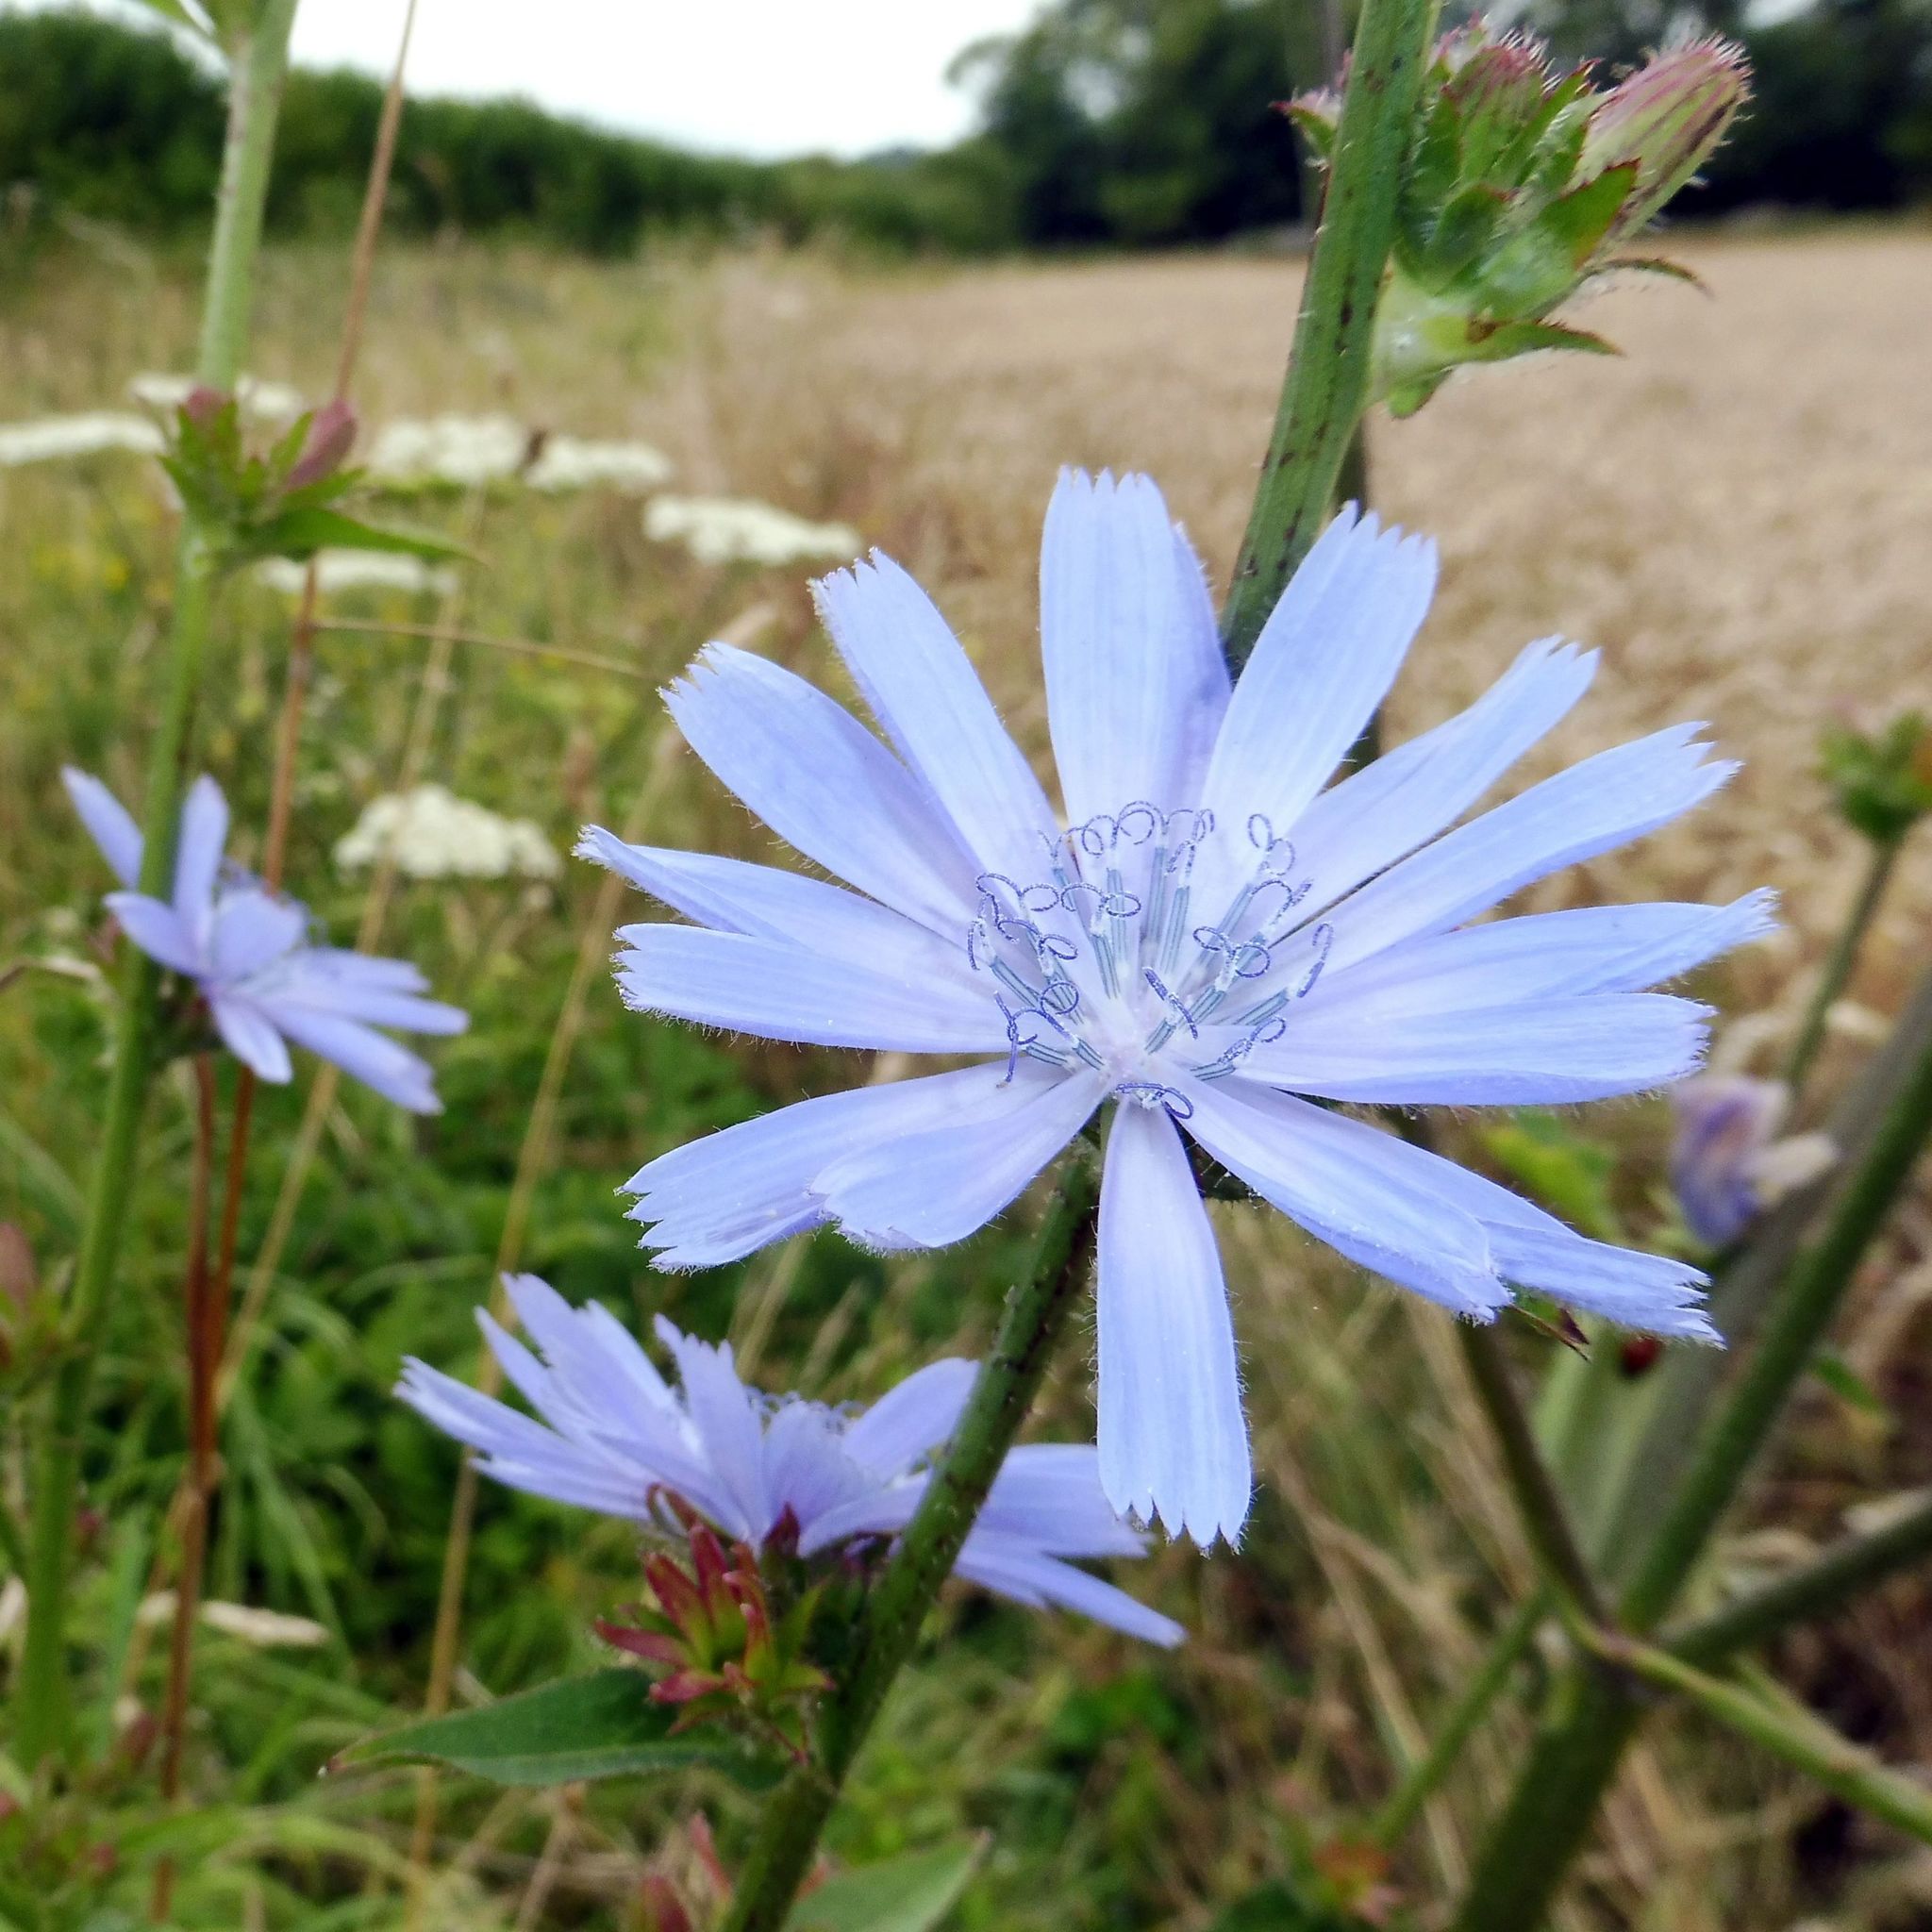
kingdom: Plantae
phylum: Tracheophyta
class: Magnoliopsida
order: Asterales
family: Asteraceae
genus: Cichorium
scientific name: Cichorium intybus
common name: Chicory
